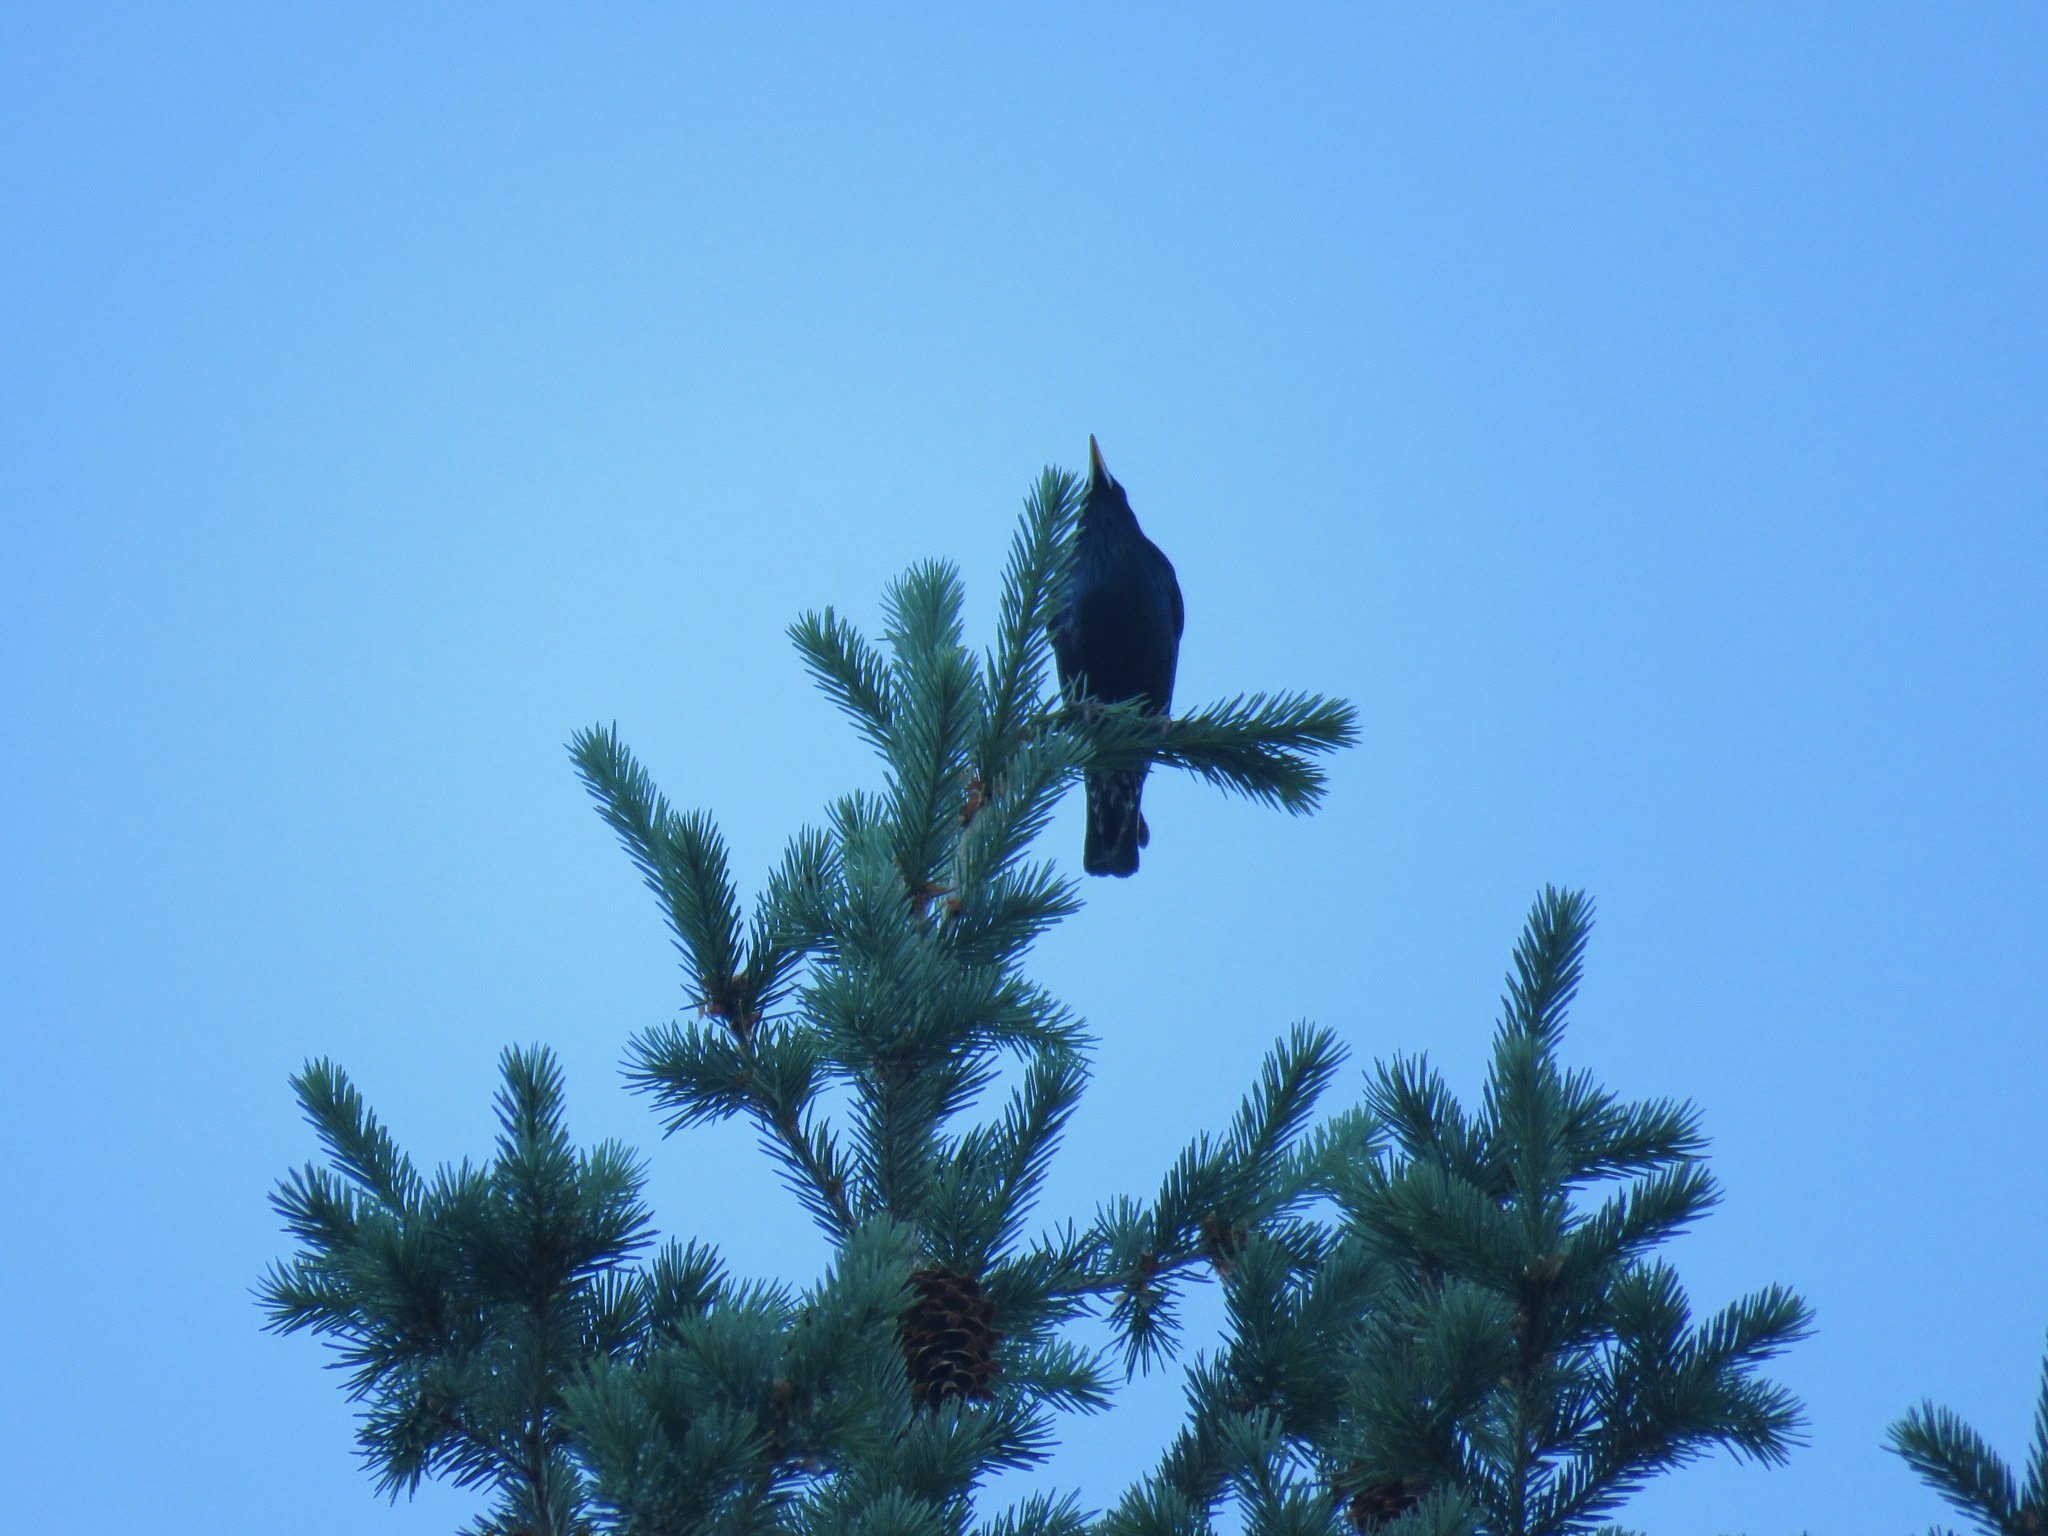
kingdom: Animalia
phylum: Chordata
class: Aves
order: Passeriformes
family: Sturnidae
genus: Sturnus
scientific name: Sturnus vulgaris
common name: Common starling
